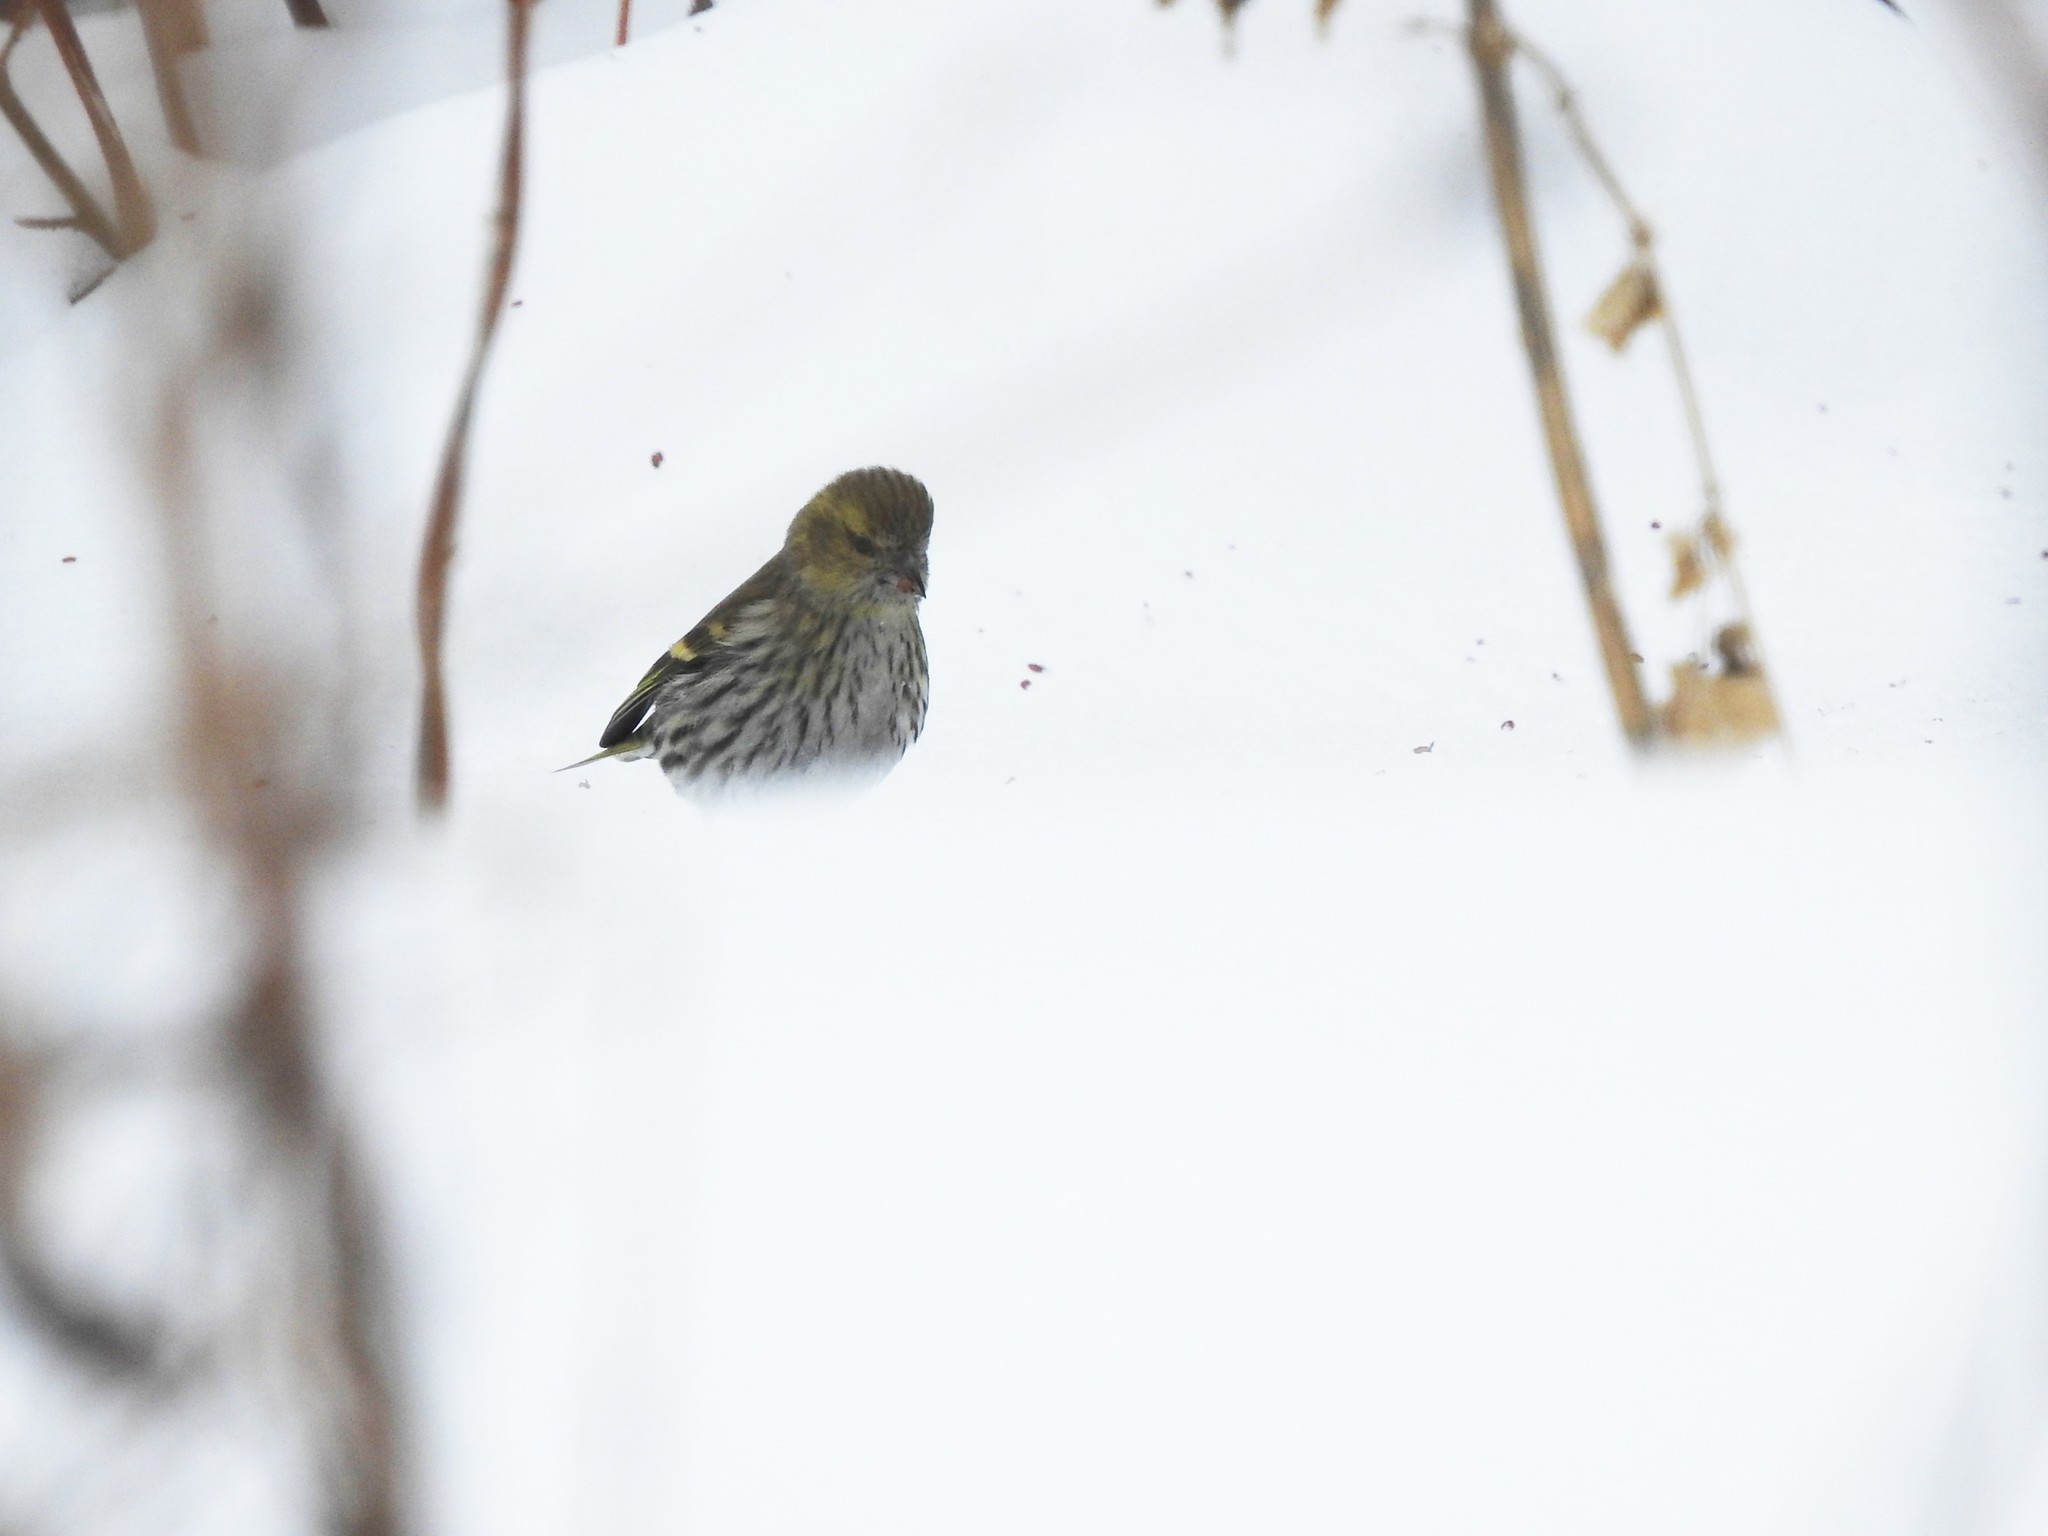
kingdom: Animalia
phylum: Chordata
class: Aves
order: Passeriformes
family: Fringillidae
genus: Spinus
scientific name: Spinus spinus
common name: Eurasian siskin
